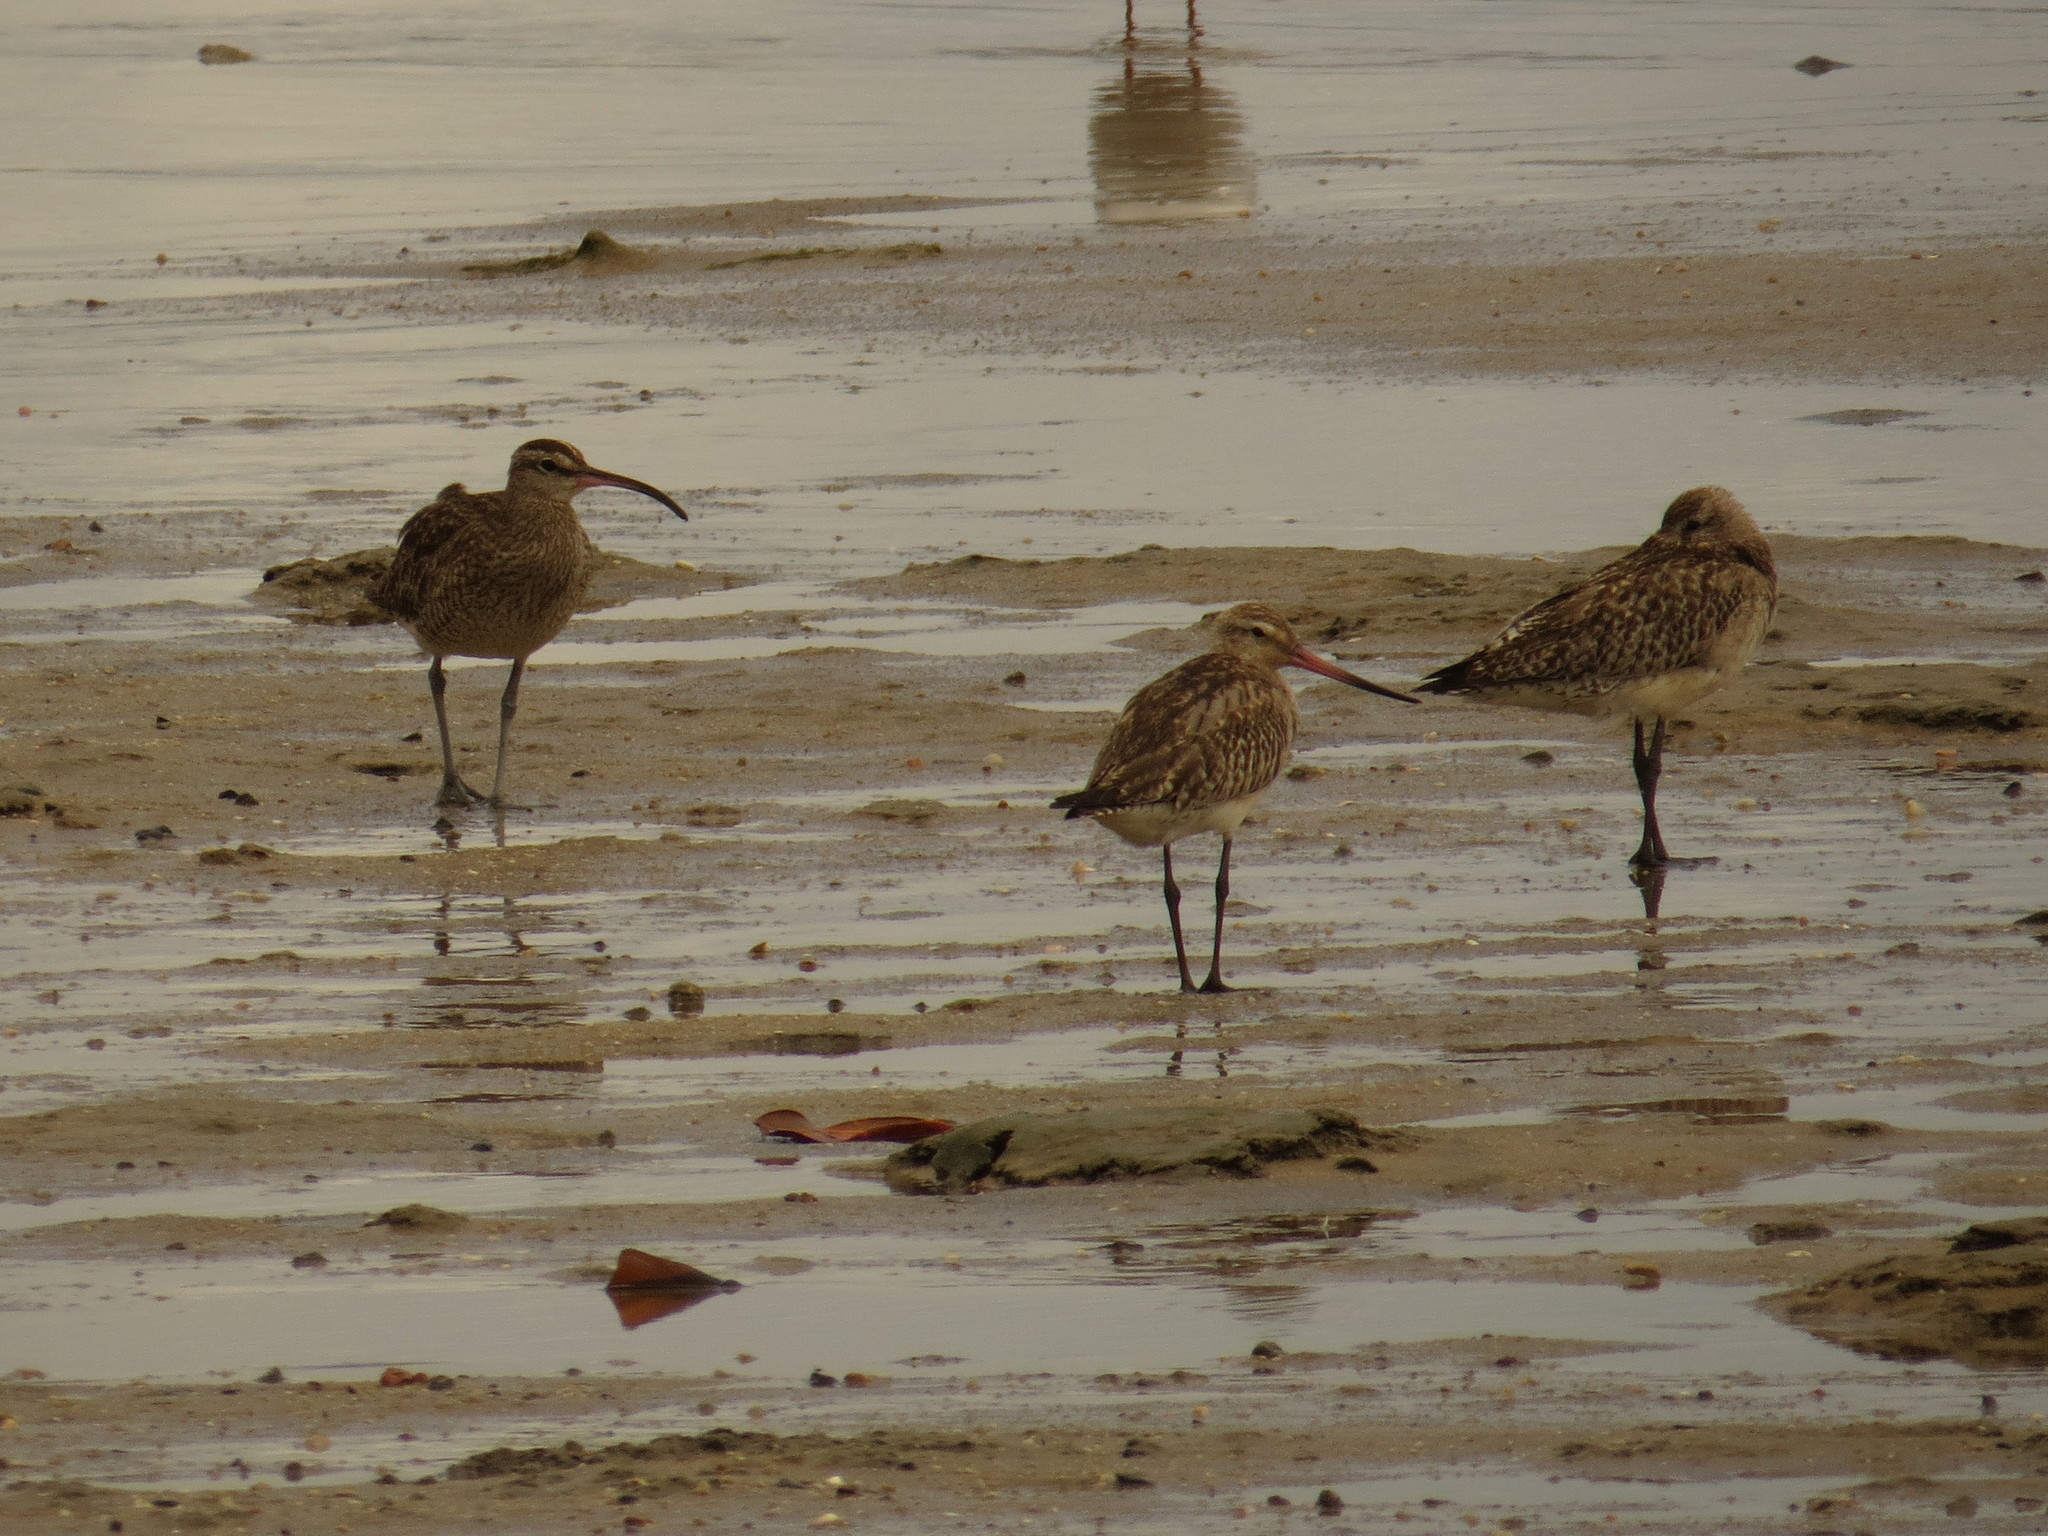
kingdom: Animalia
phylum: Chordata
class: Aves
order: Charadriiformes
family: Scolopacidae
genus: Numenius
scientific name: Numenius phaeopus
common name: Whimbrel
